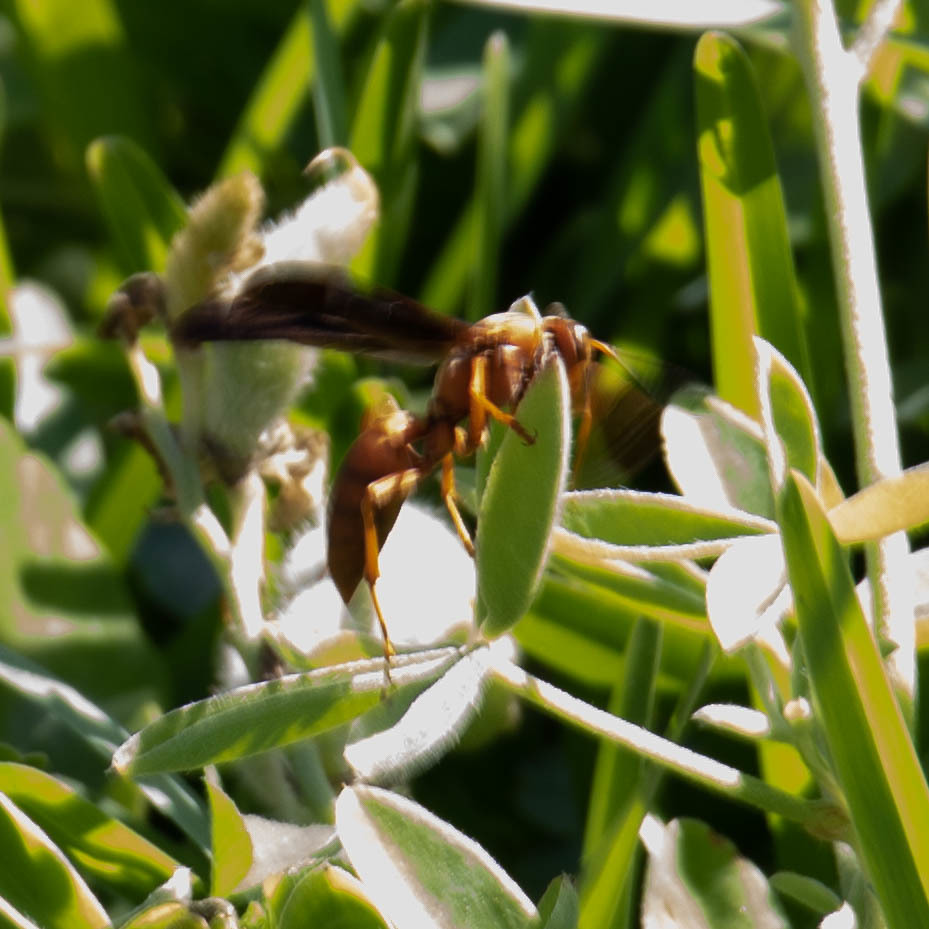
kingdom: Animalia
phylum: Arthropoda
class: Insecta
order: Hymenoptera
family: Vespidae
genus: Fuscopolistes
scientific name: Fuscopolistes
